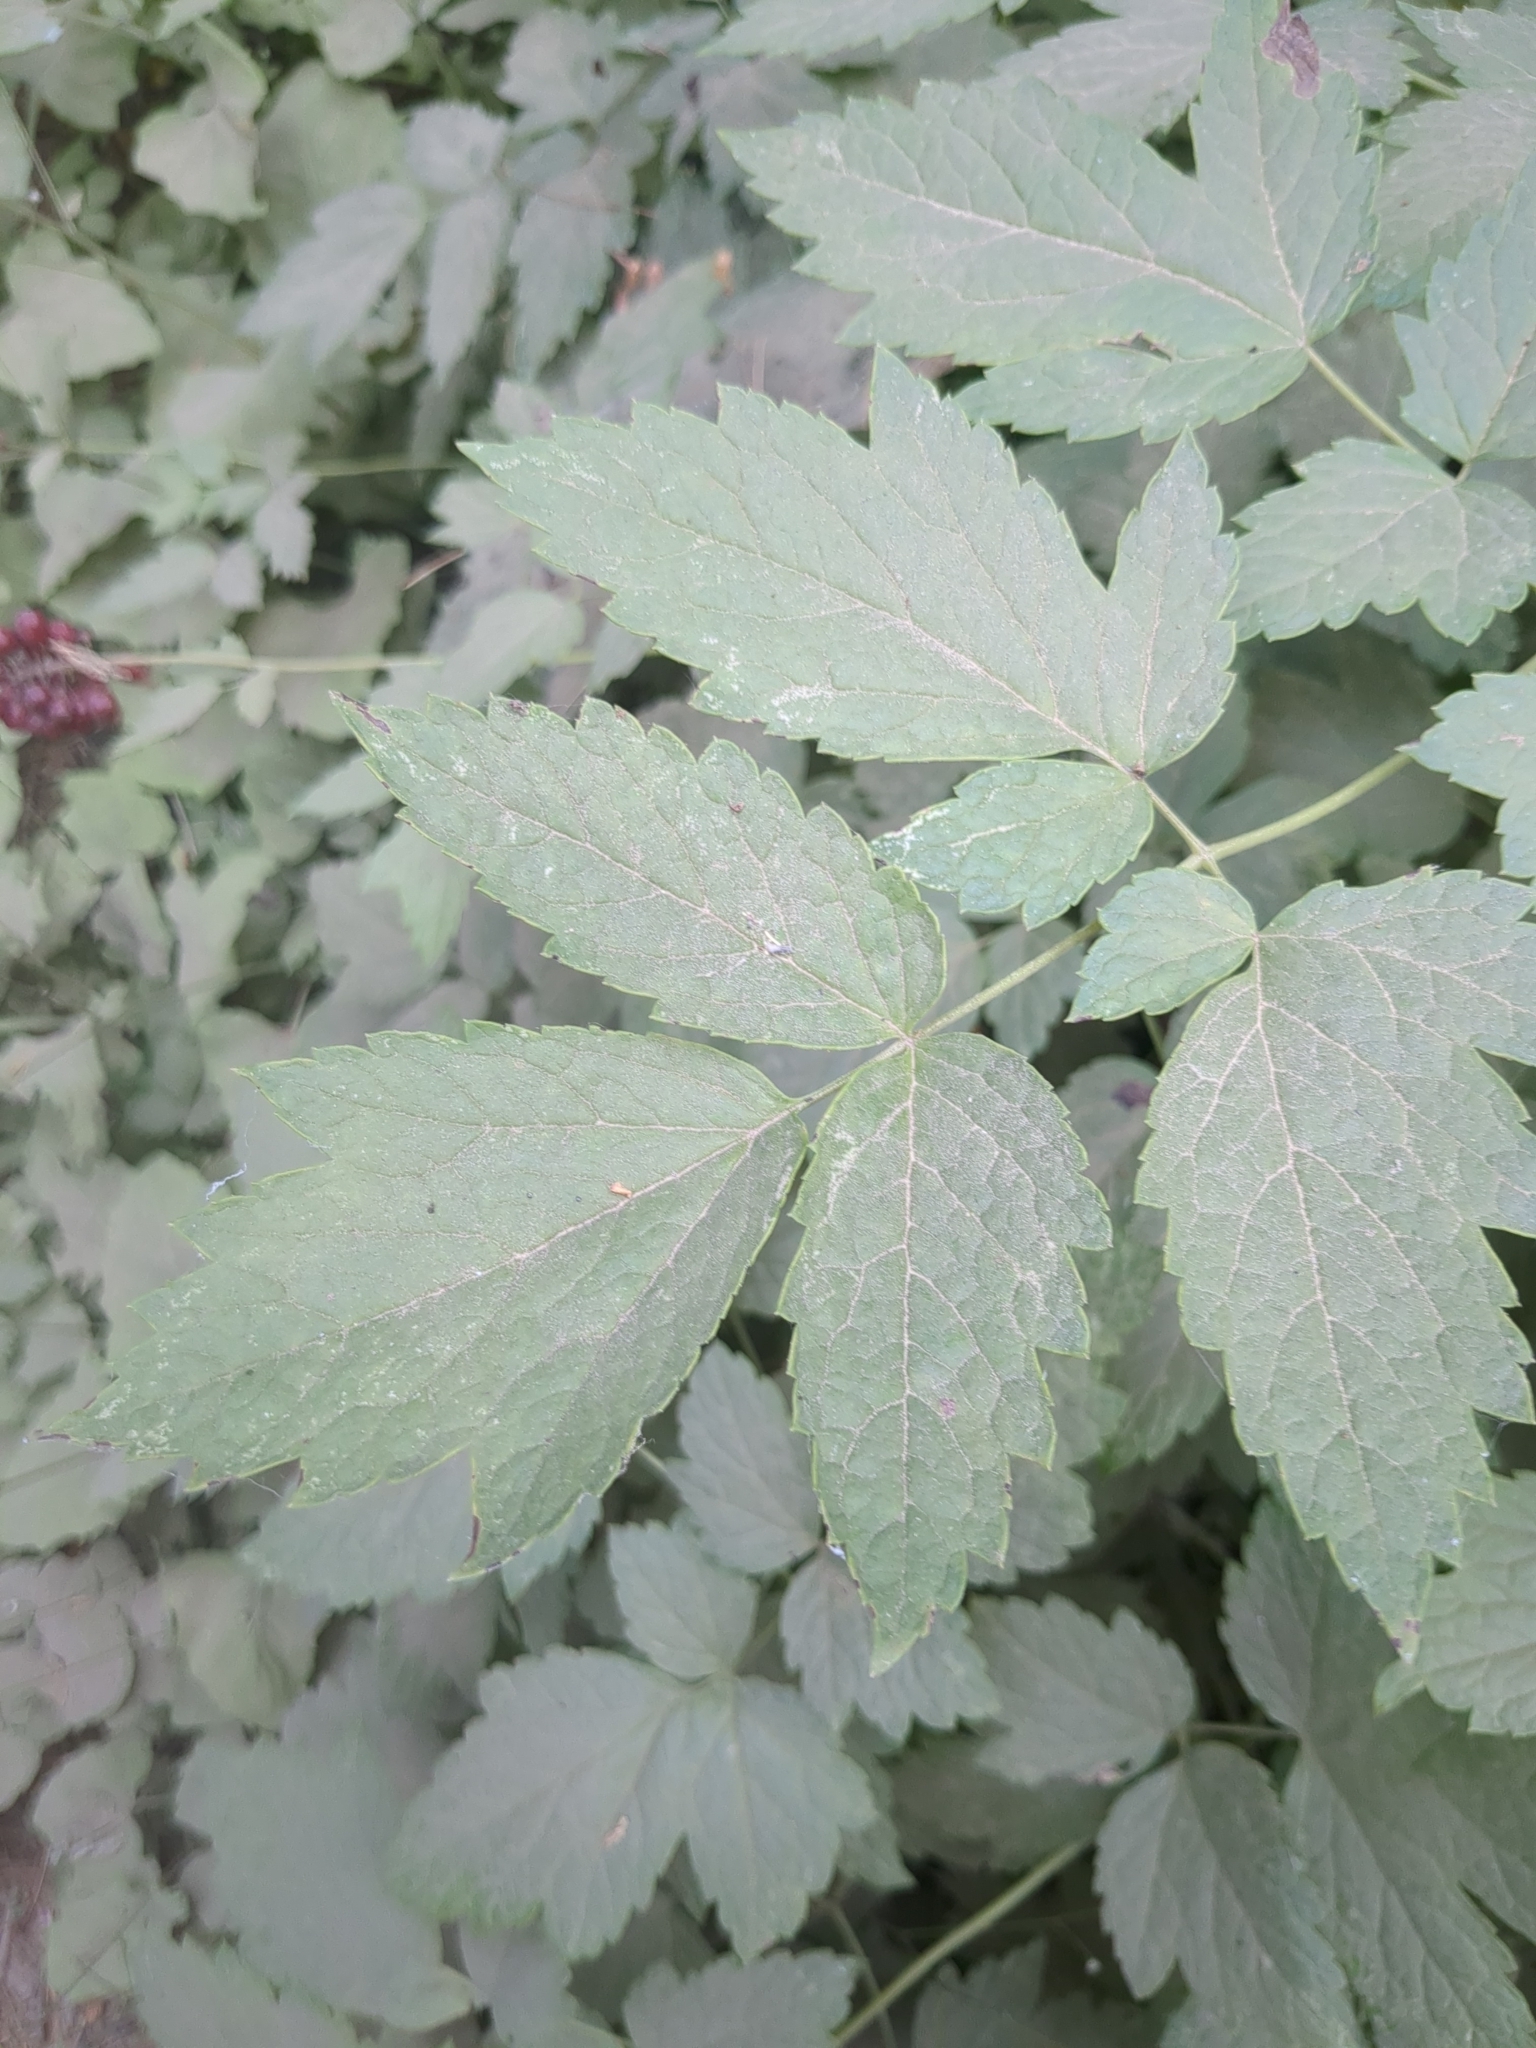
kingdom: Plantae
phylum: Tracheophyta
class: Magnoliopsida
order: Ranunculales
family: Ranunculaceae
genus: Actaea
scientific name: Actaea rubra
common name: Red baneberry
